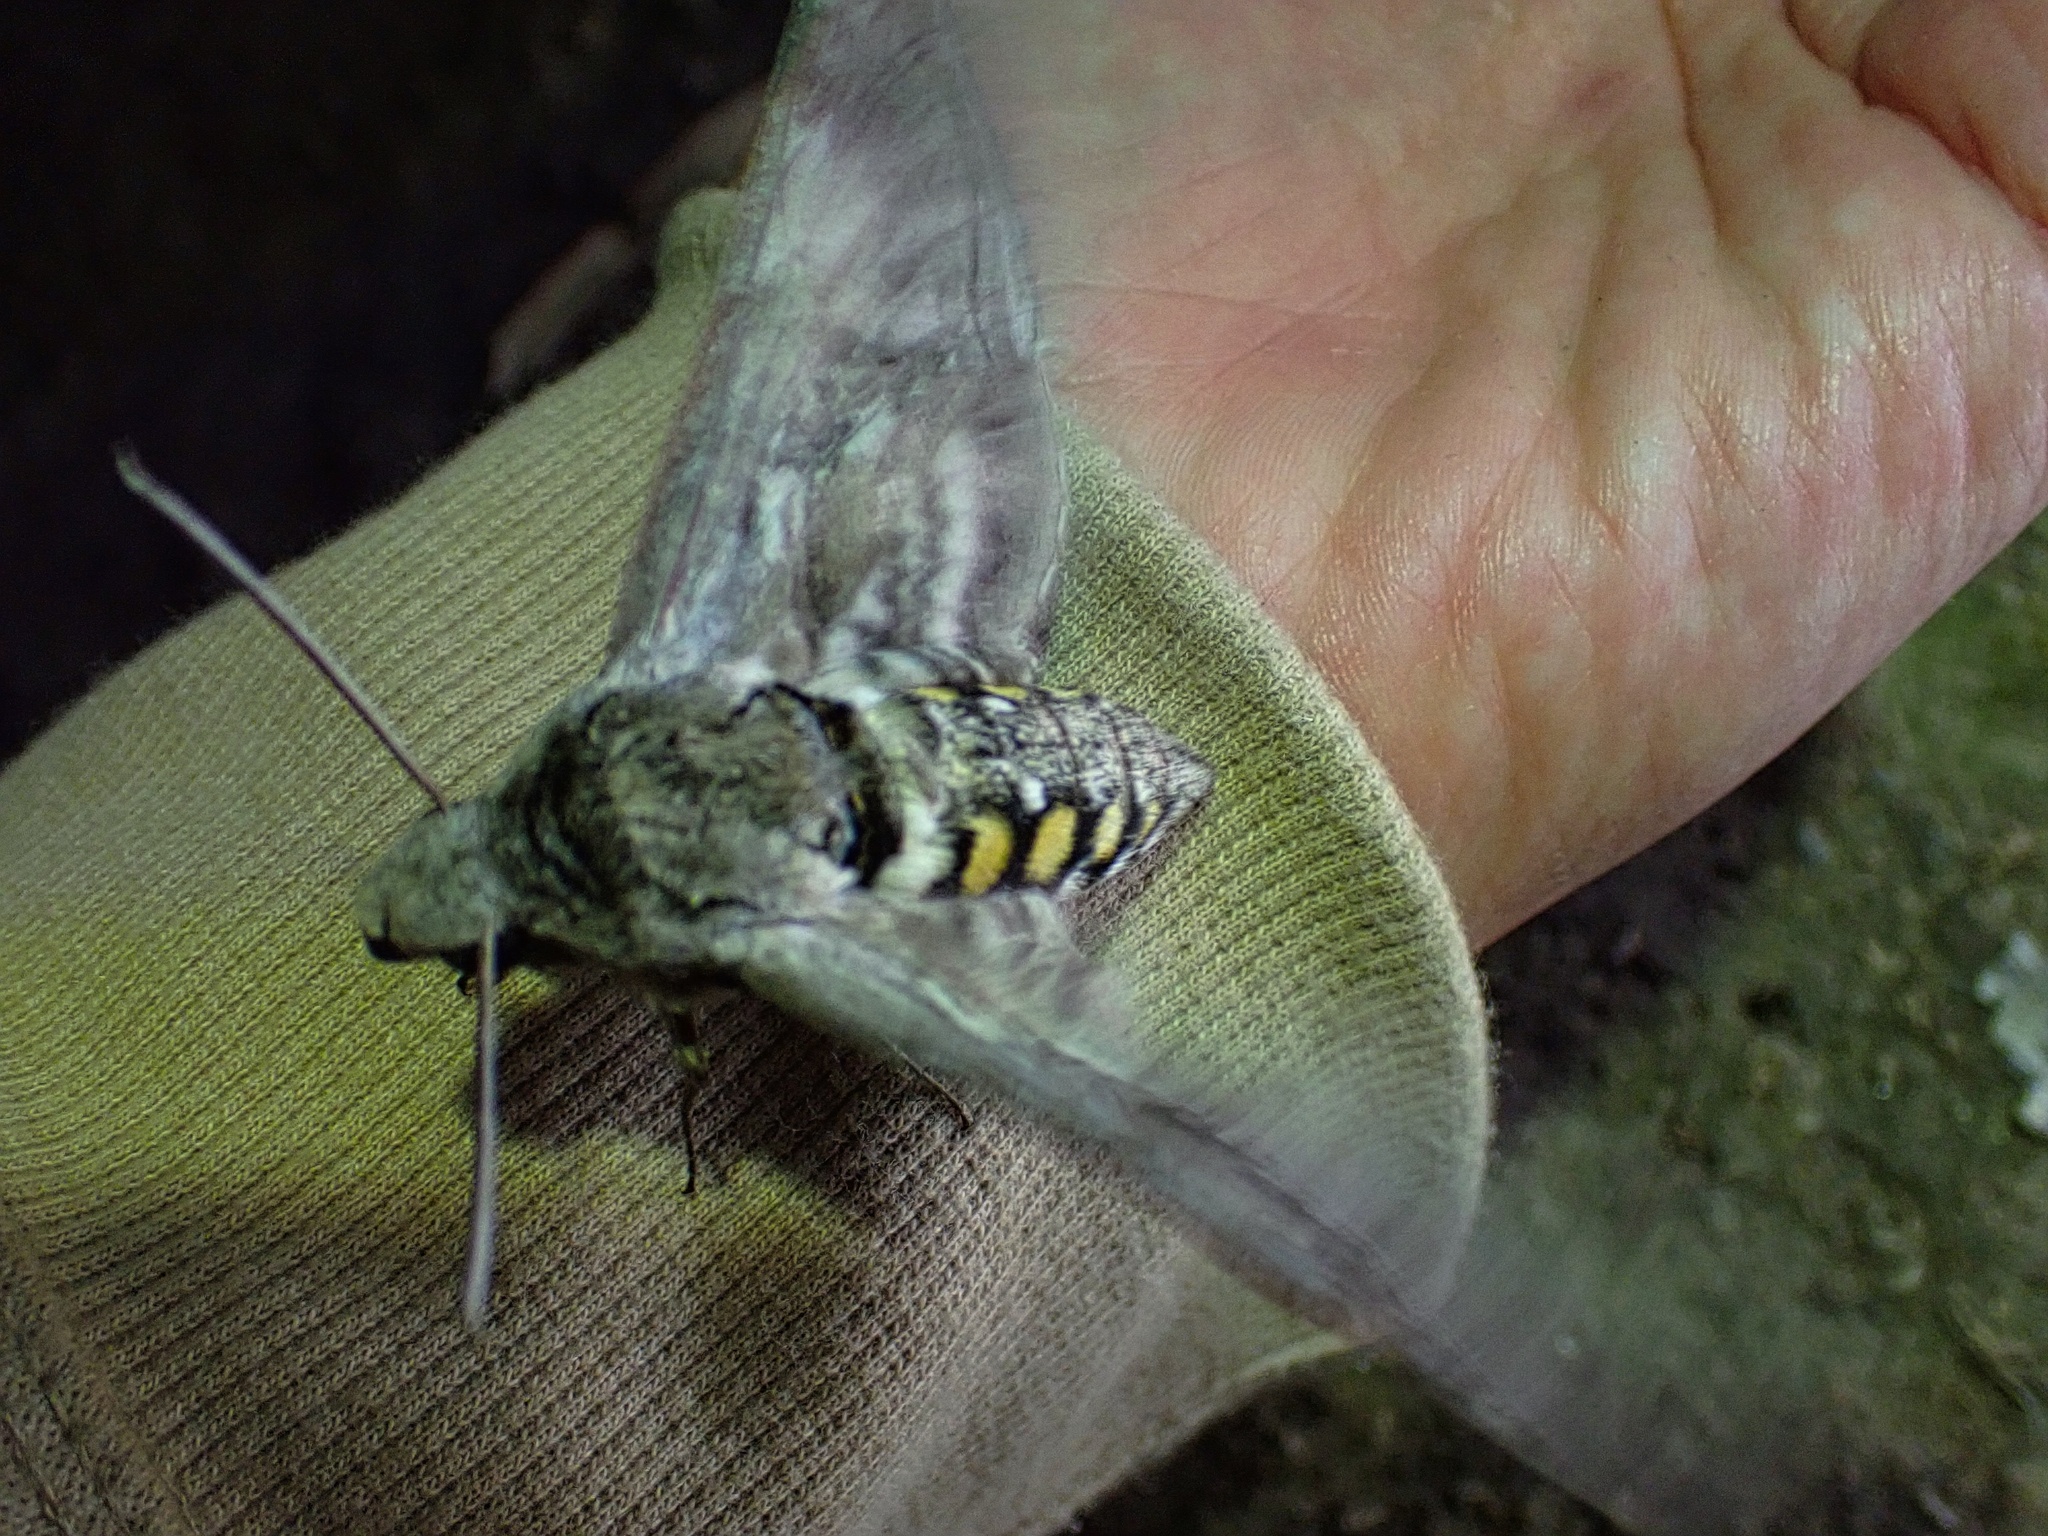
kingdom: Animalia
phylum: Arthropoda
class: Insecta
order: Lepidoptera
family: Sphingidae
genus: Manduca
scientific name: Manduca quinquemaculatus
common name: Five-spotted hawk-moth
